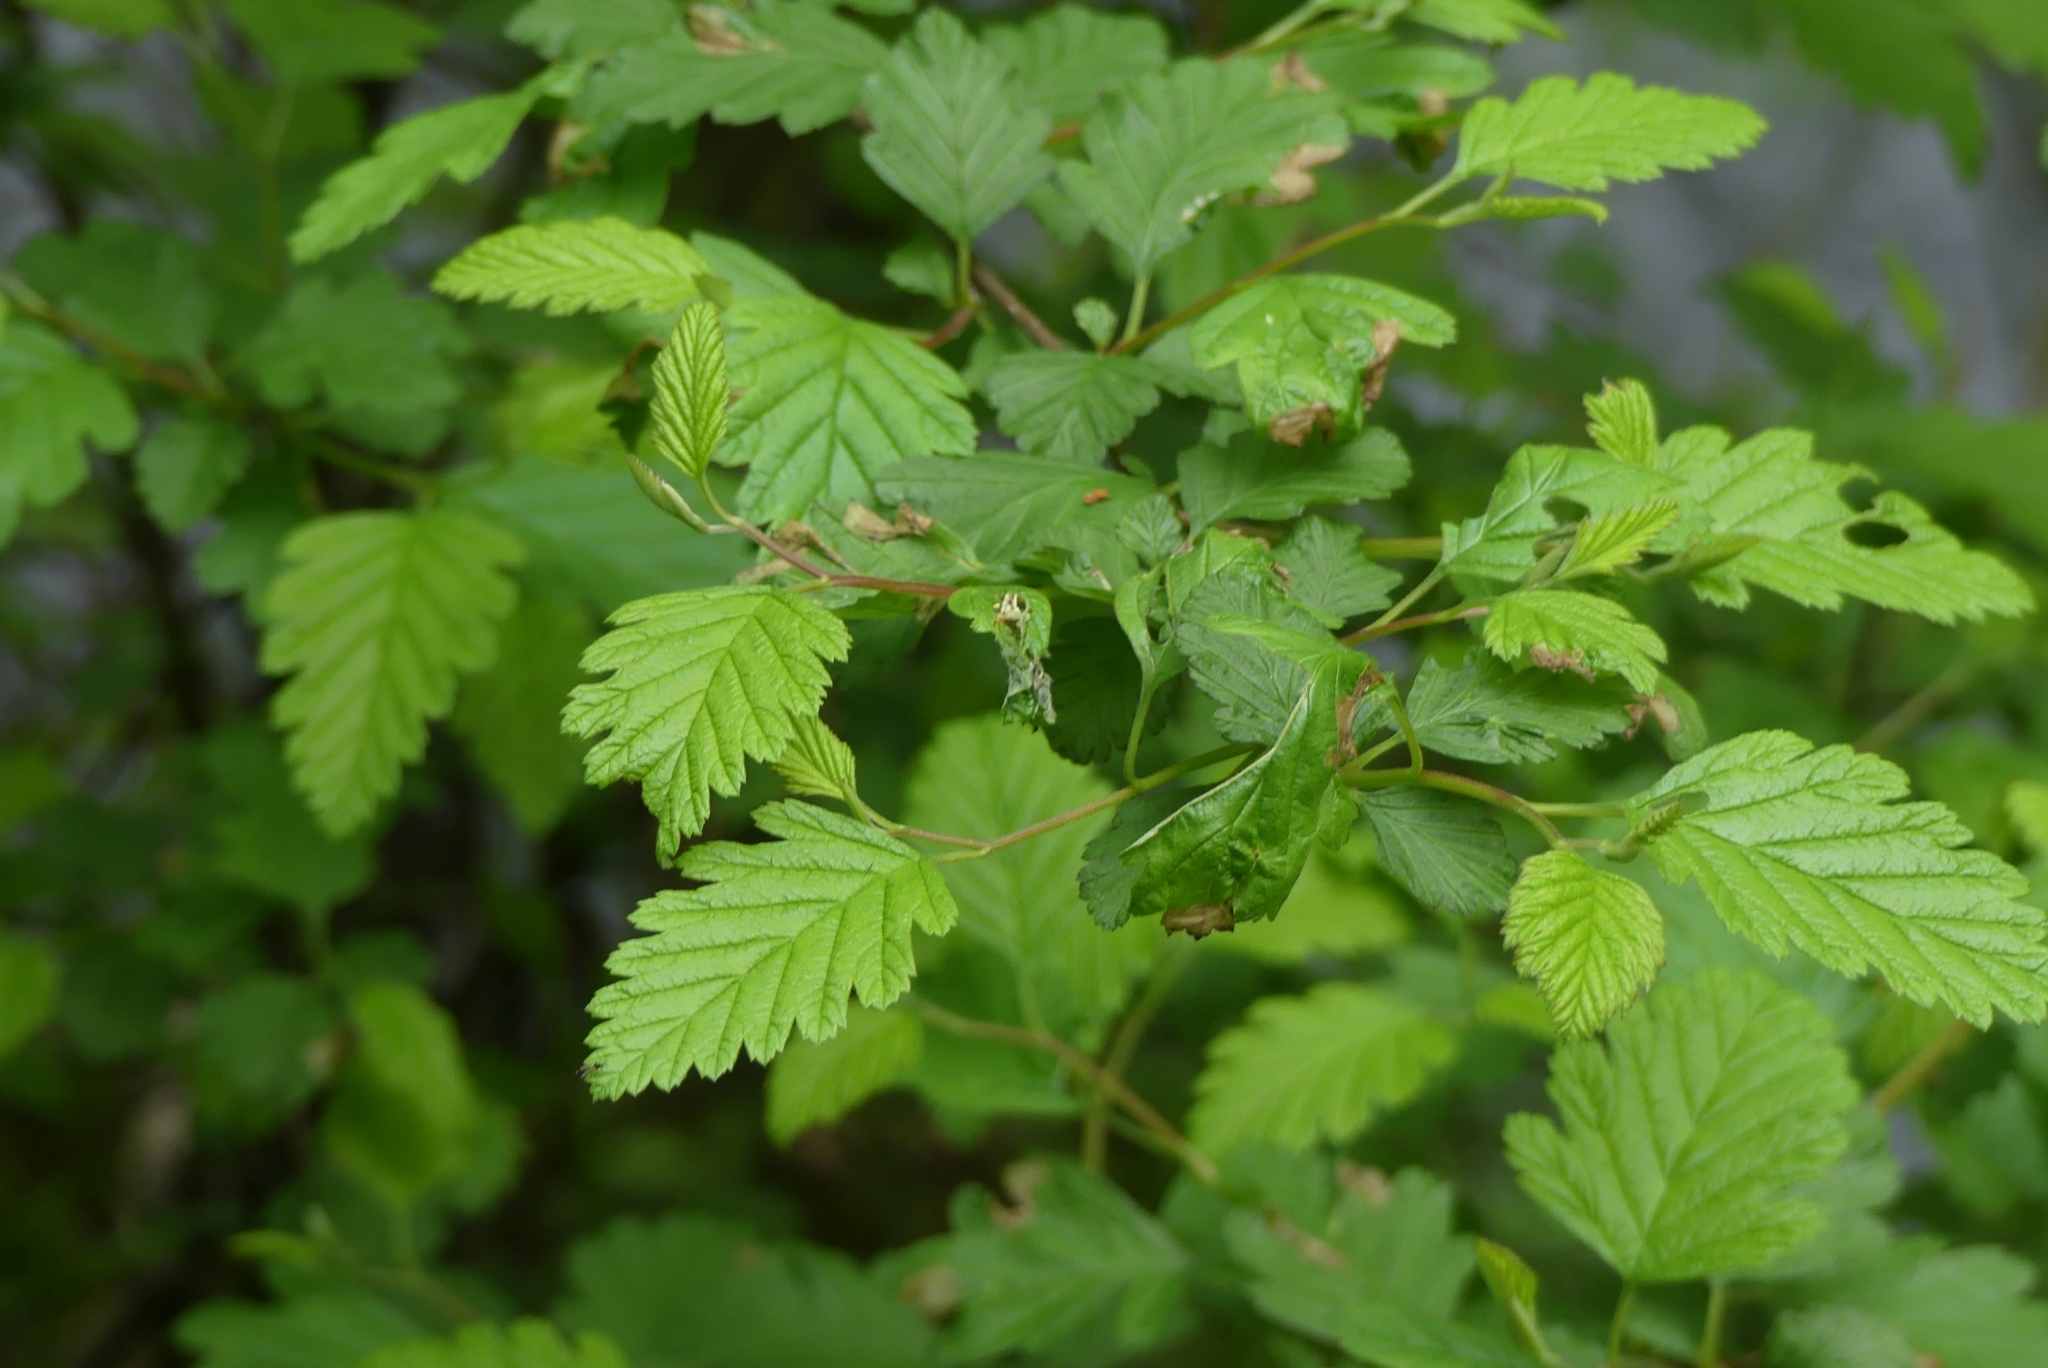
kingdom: Plantae
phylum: Tracheophyta
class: Magnoliopsida
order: Rosales
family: Rosaceae
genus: Holodiscus
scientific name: Holodiscus discolor
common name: Oceanspray
